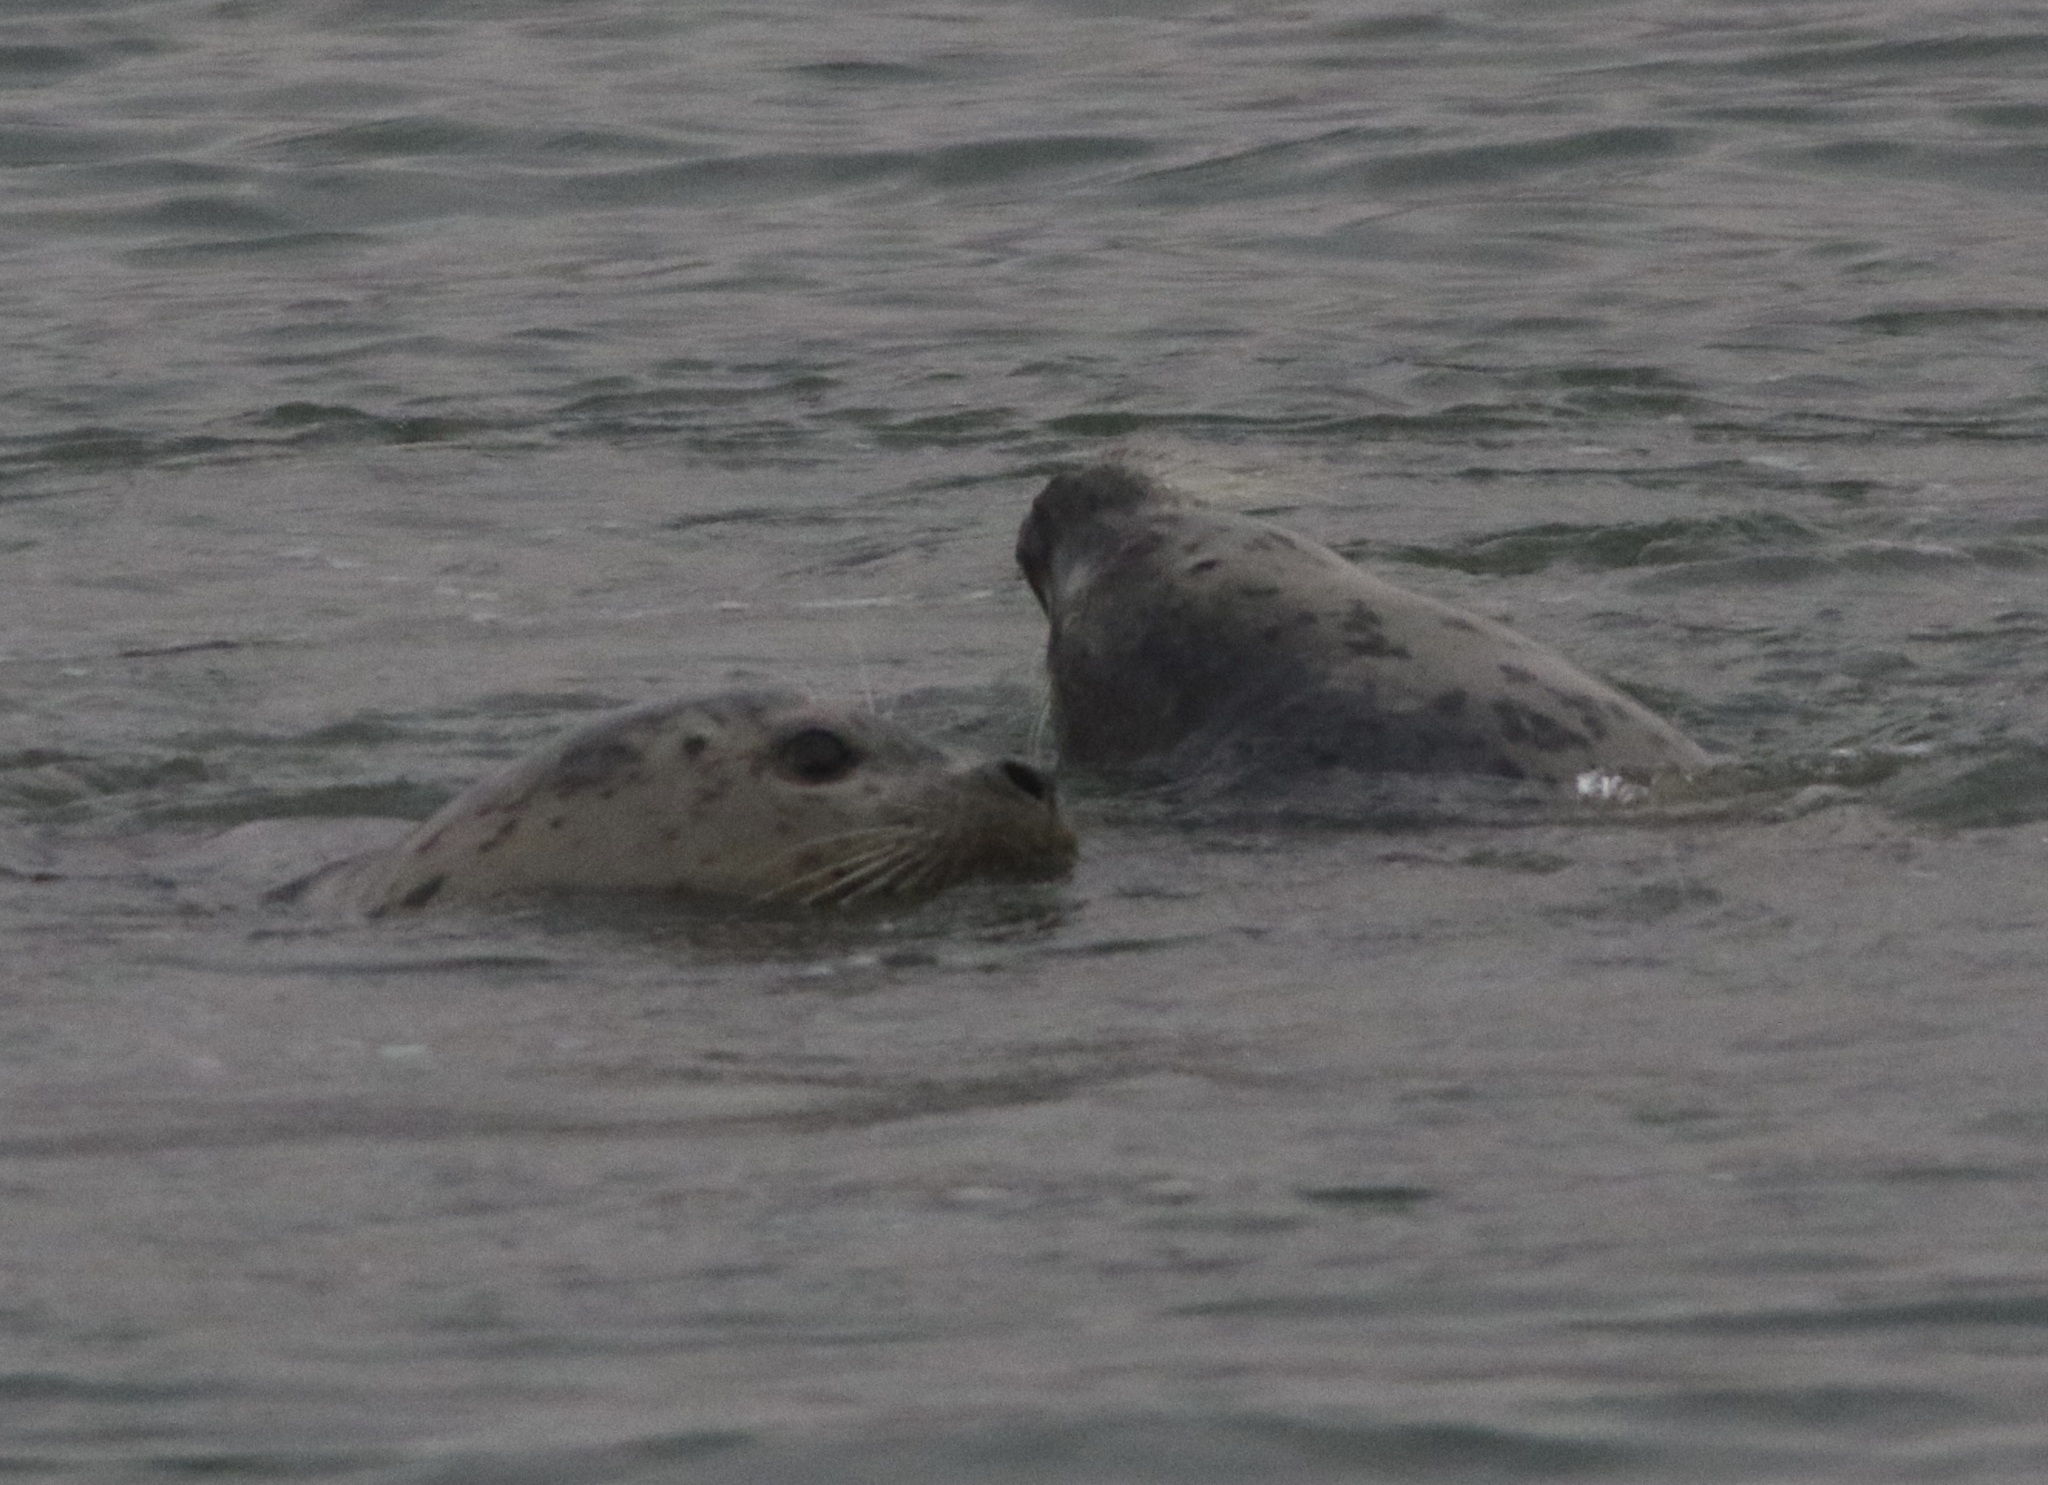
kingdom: Animalia
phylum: Chordata
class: Mammalia
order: Carnivora
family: Phocidae
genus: Phoca
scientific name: Phoca vitulina
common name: Harbor seal
